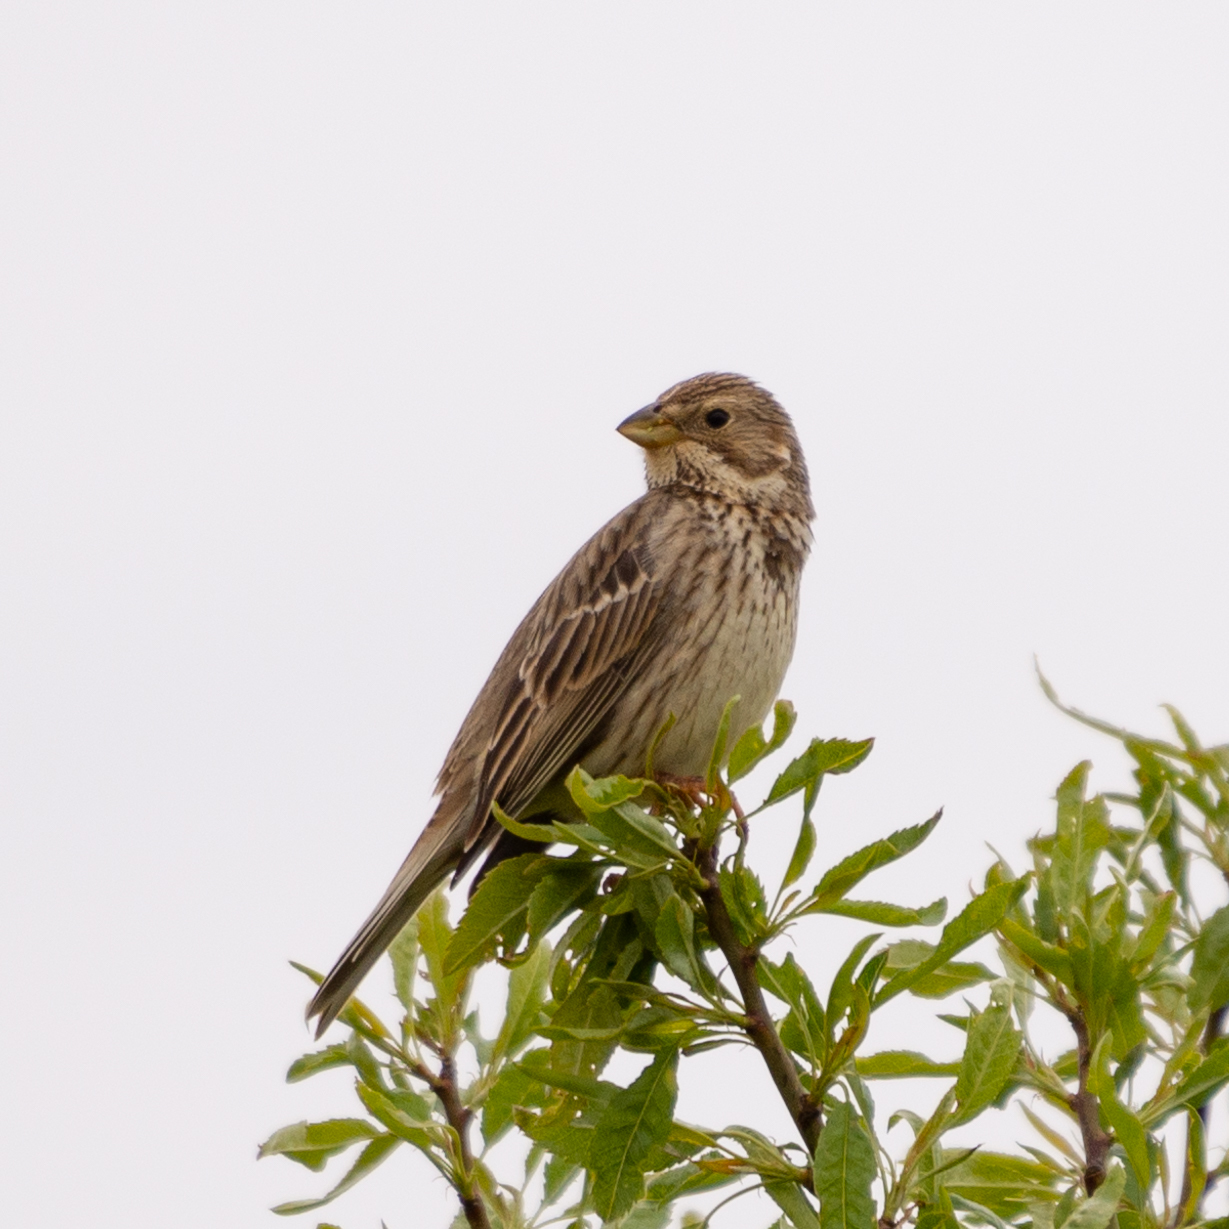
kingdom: Animalia
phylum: Chordata
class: Aves
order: Passeriformes
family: Emberizidae
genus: Emberiza
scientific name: Emberiza calandra
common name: Corn bunting
